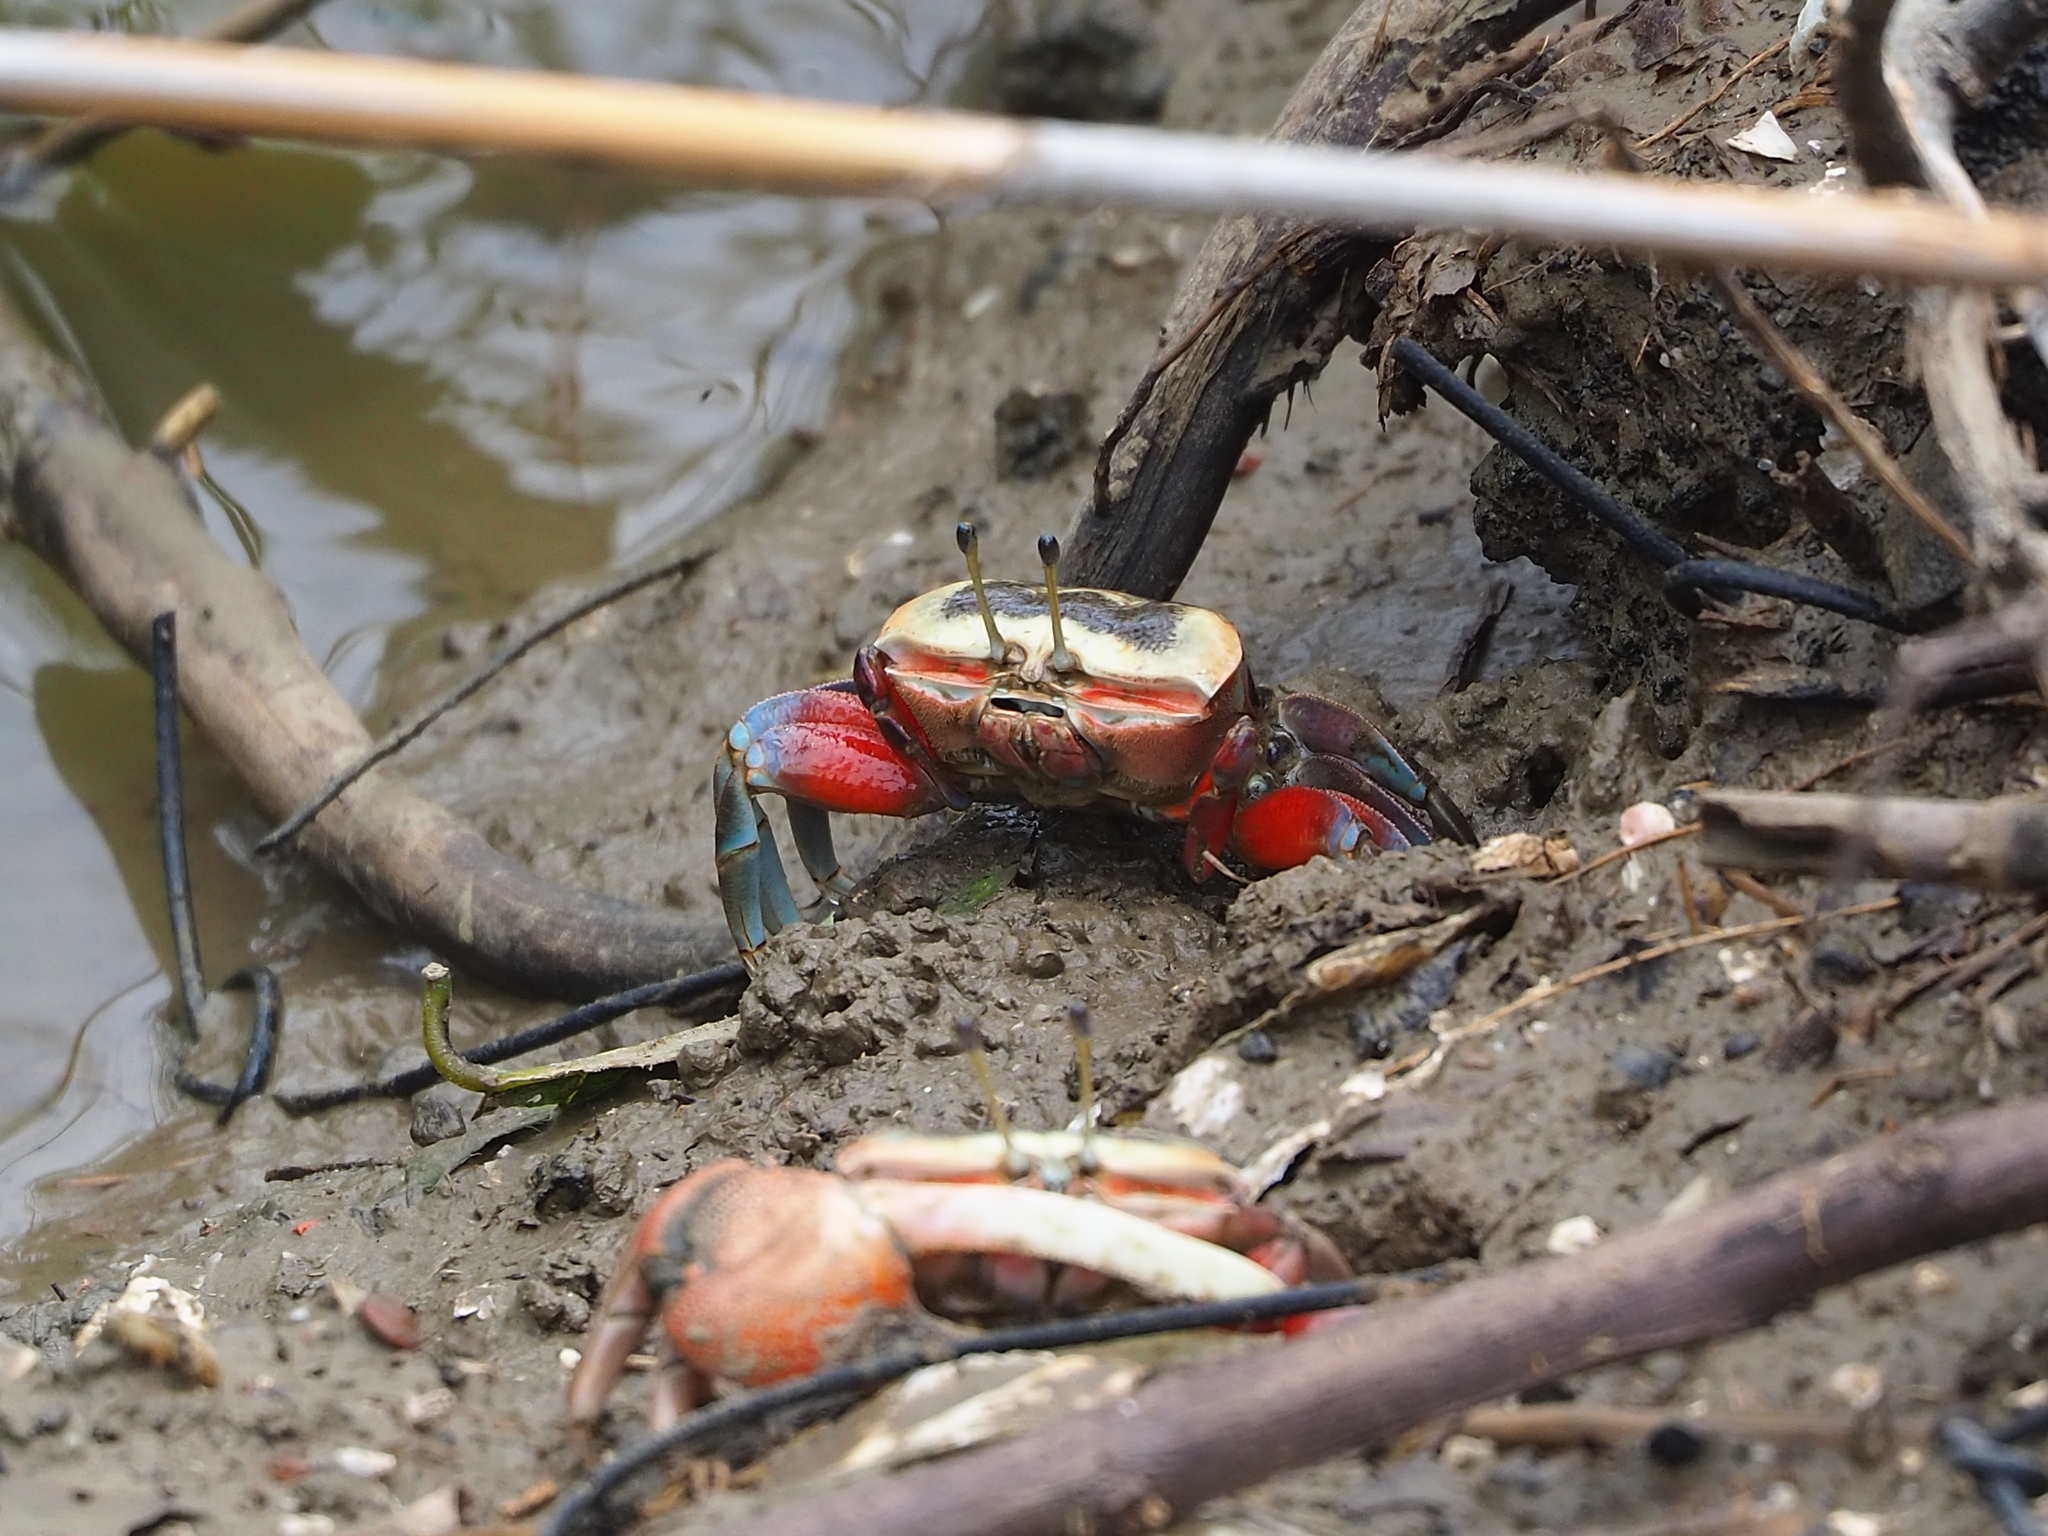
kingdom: Animalia
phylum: Arthropoda
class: Malacostraca
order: Decapoda
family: Ocypodidae
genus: Tubuca
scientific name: Tubuca arcuata
